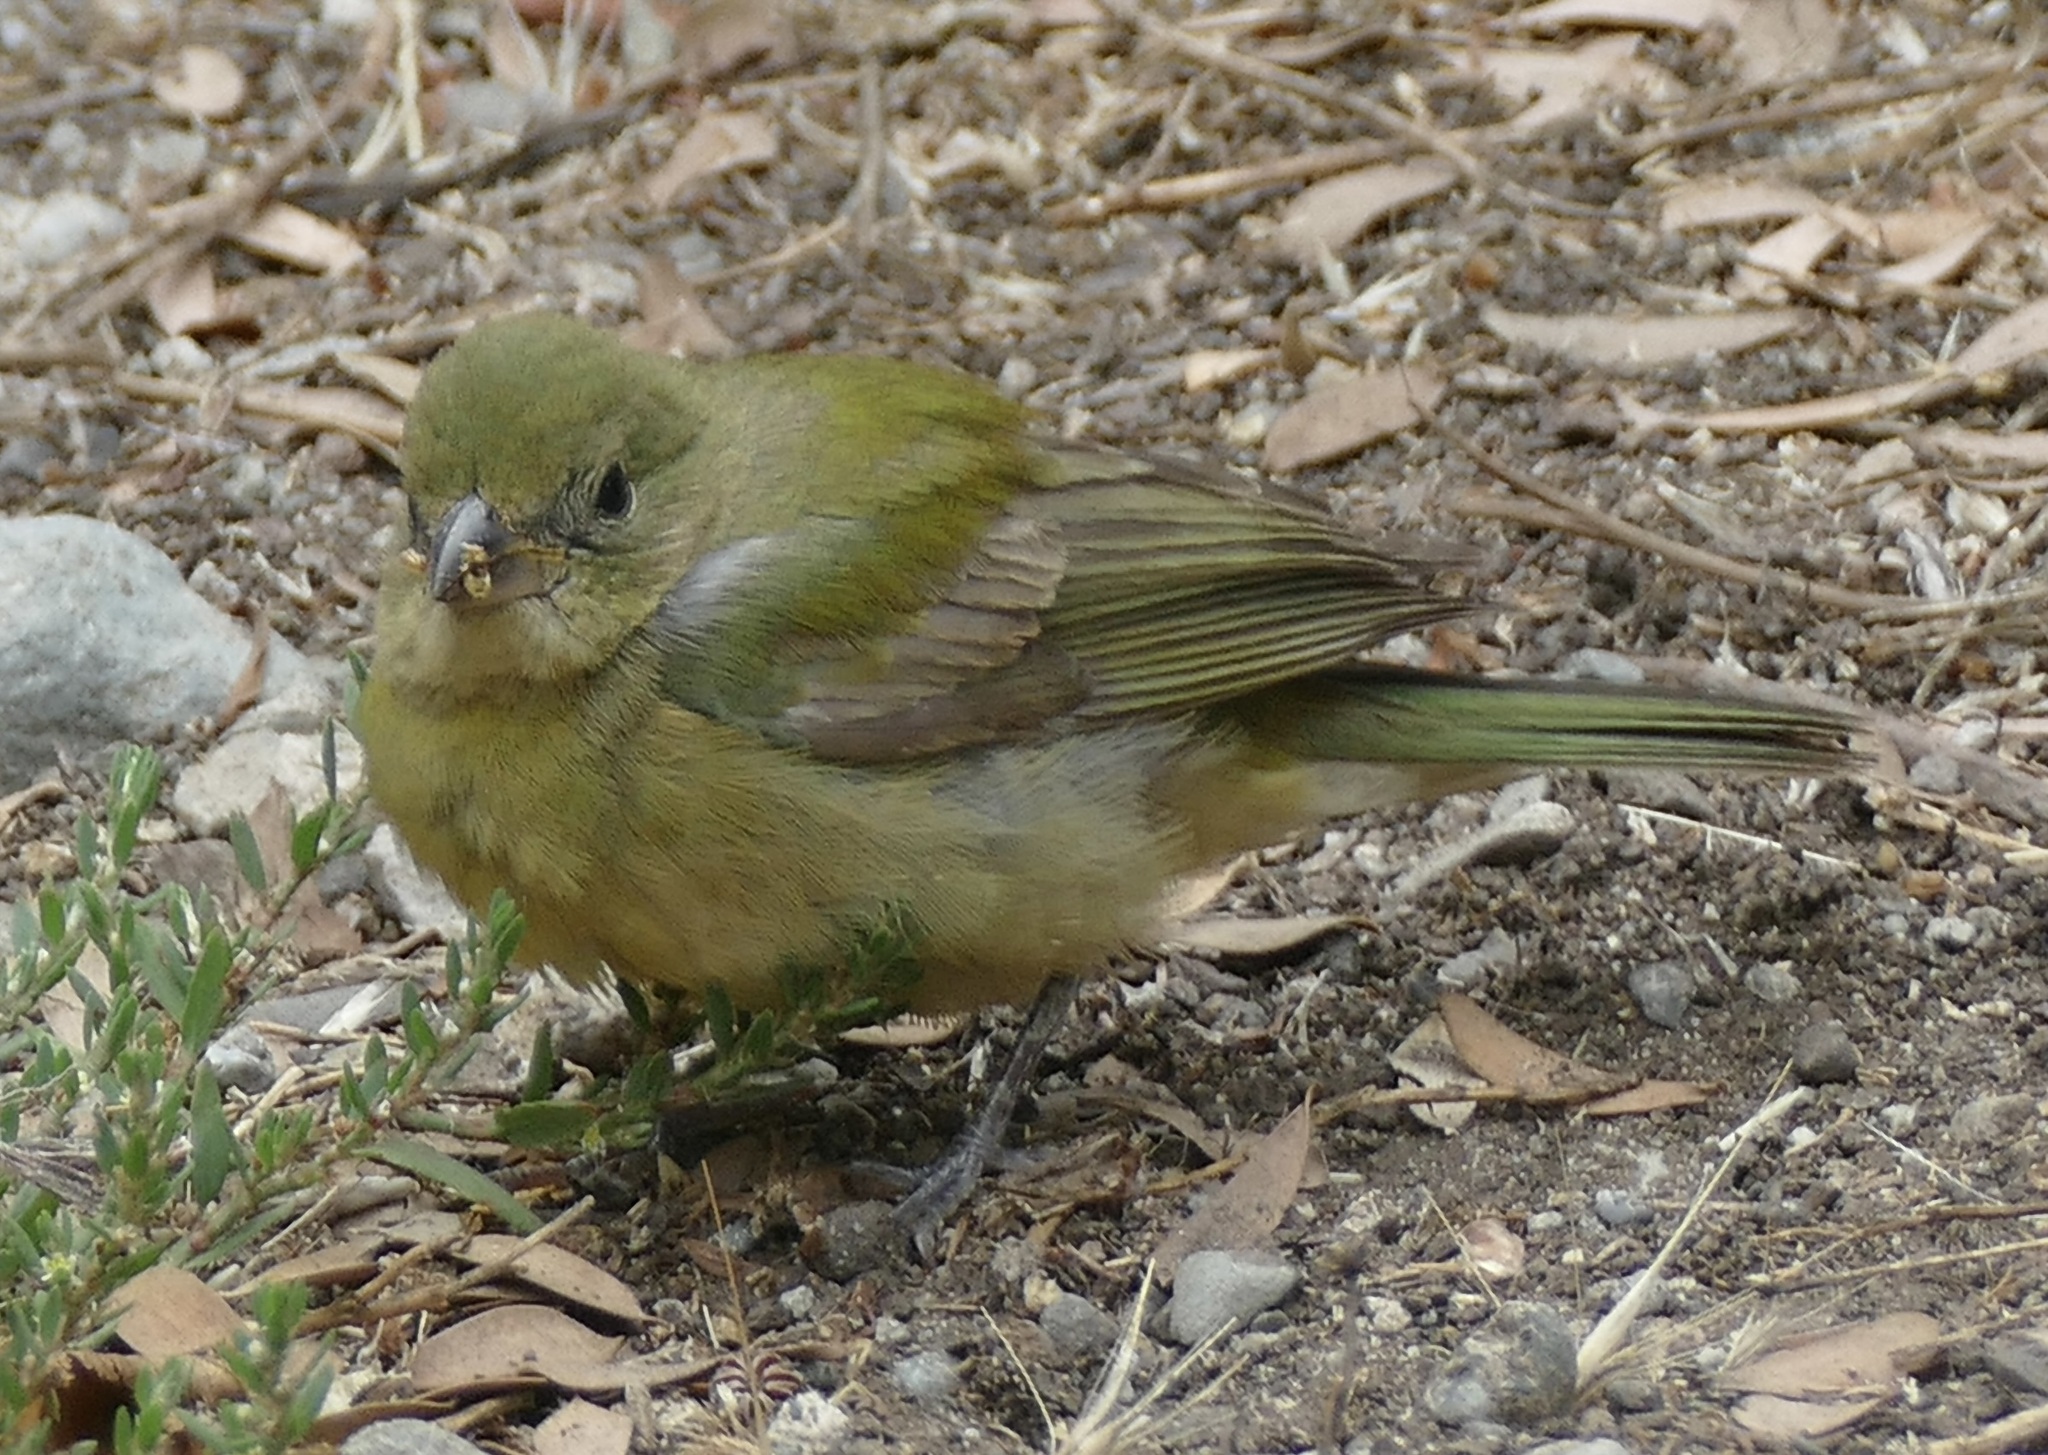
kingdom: Animalia
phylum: Chordata
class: Aves
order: Passeriformes
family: Cardinalidae
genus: Passerina
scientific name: Passerina ciris
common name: Painted bunting
